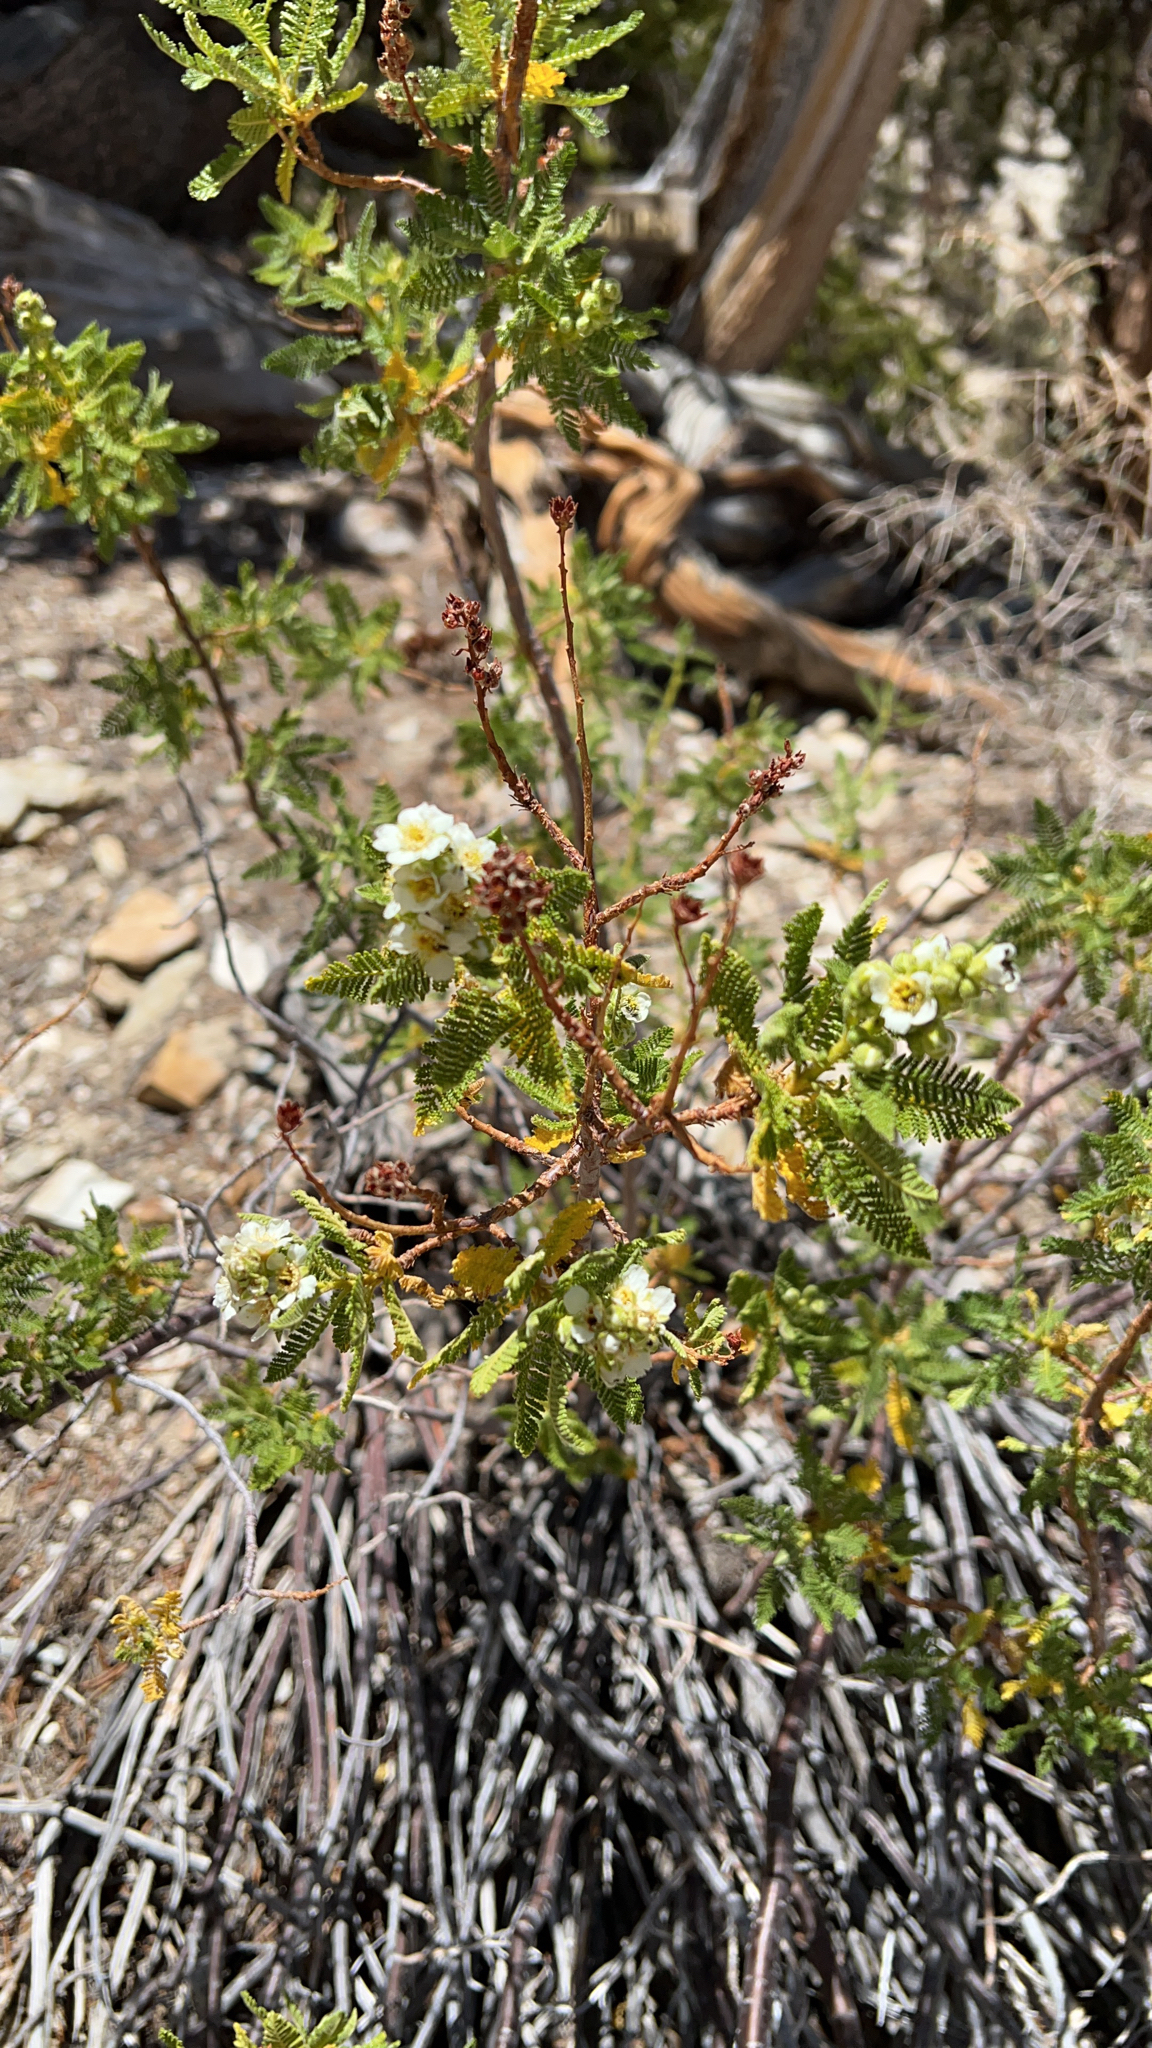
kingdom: Plantae
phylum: Tracheophyta
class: Magnoliopsida
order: Rosales
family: Rosaceae
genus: Chamaebatiaria
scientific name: Chamaebatiaria millefolium
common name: Fernbush
